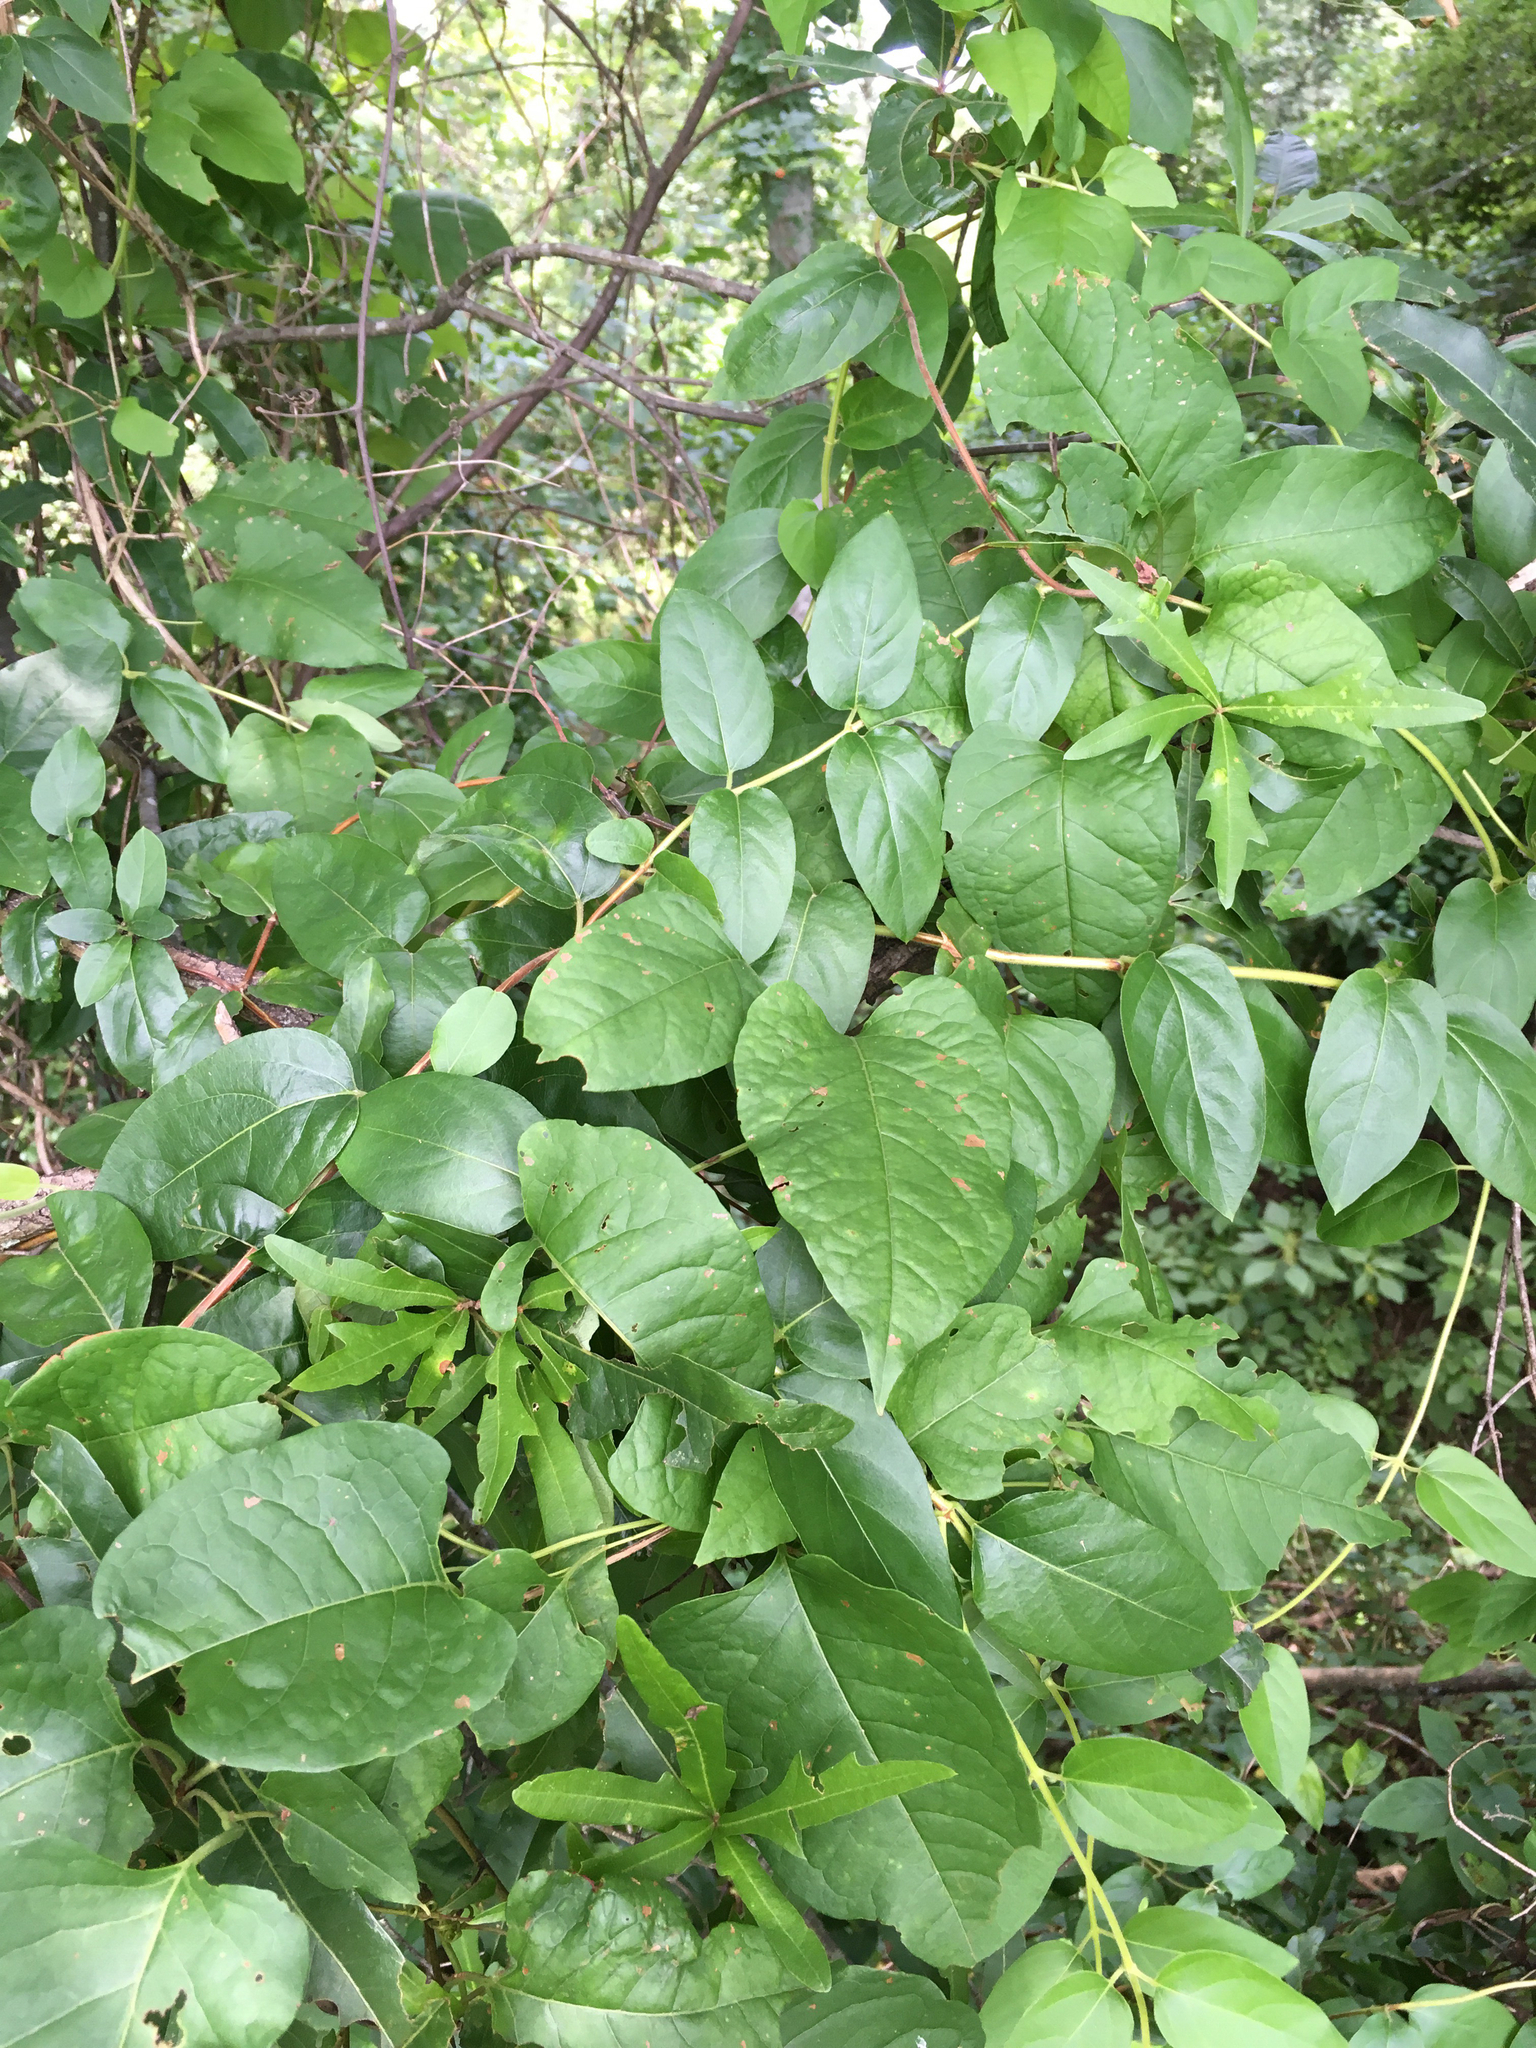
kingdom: Plantae
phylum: Tracheophyta
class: Magnoliopsida
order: Caryophyllales
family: Polygonaceae
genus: Brunnichia
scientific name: Brunnichia ovata
